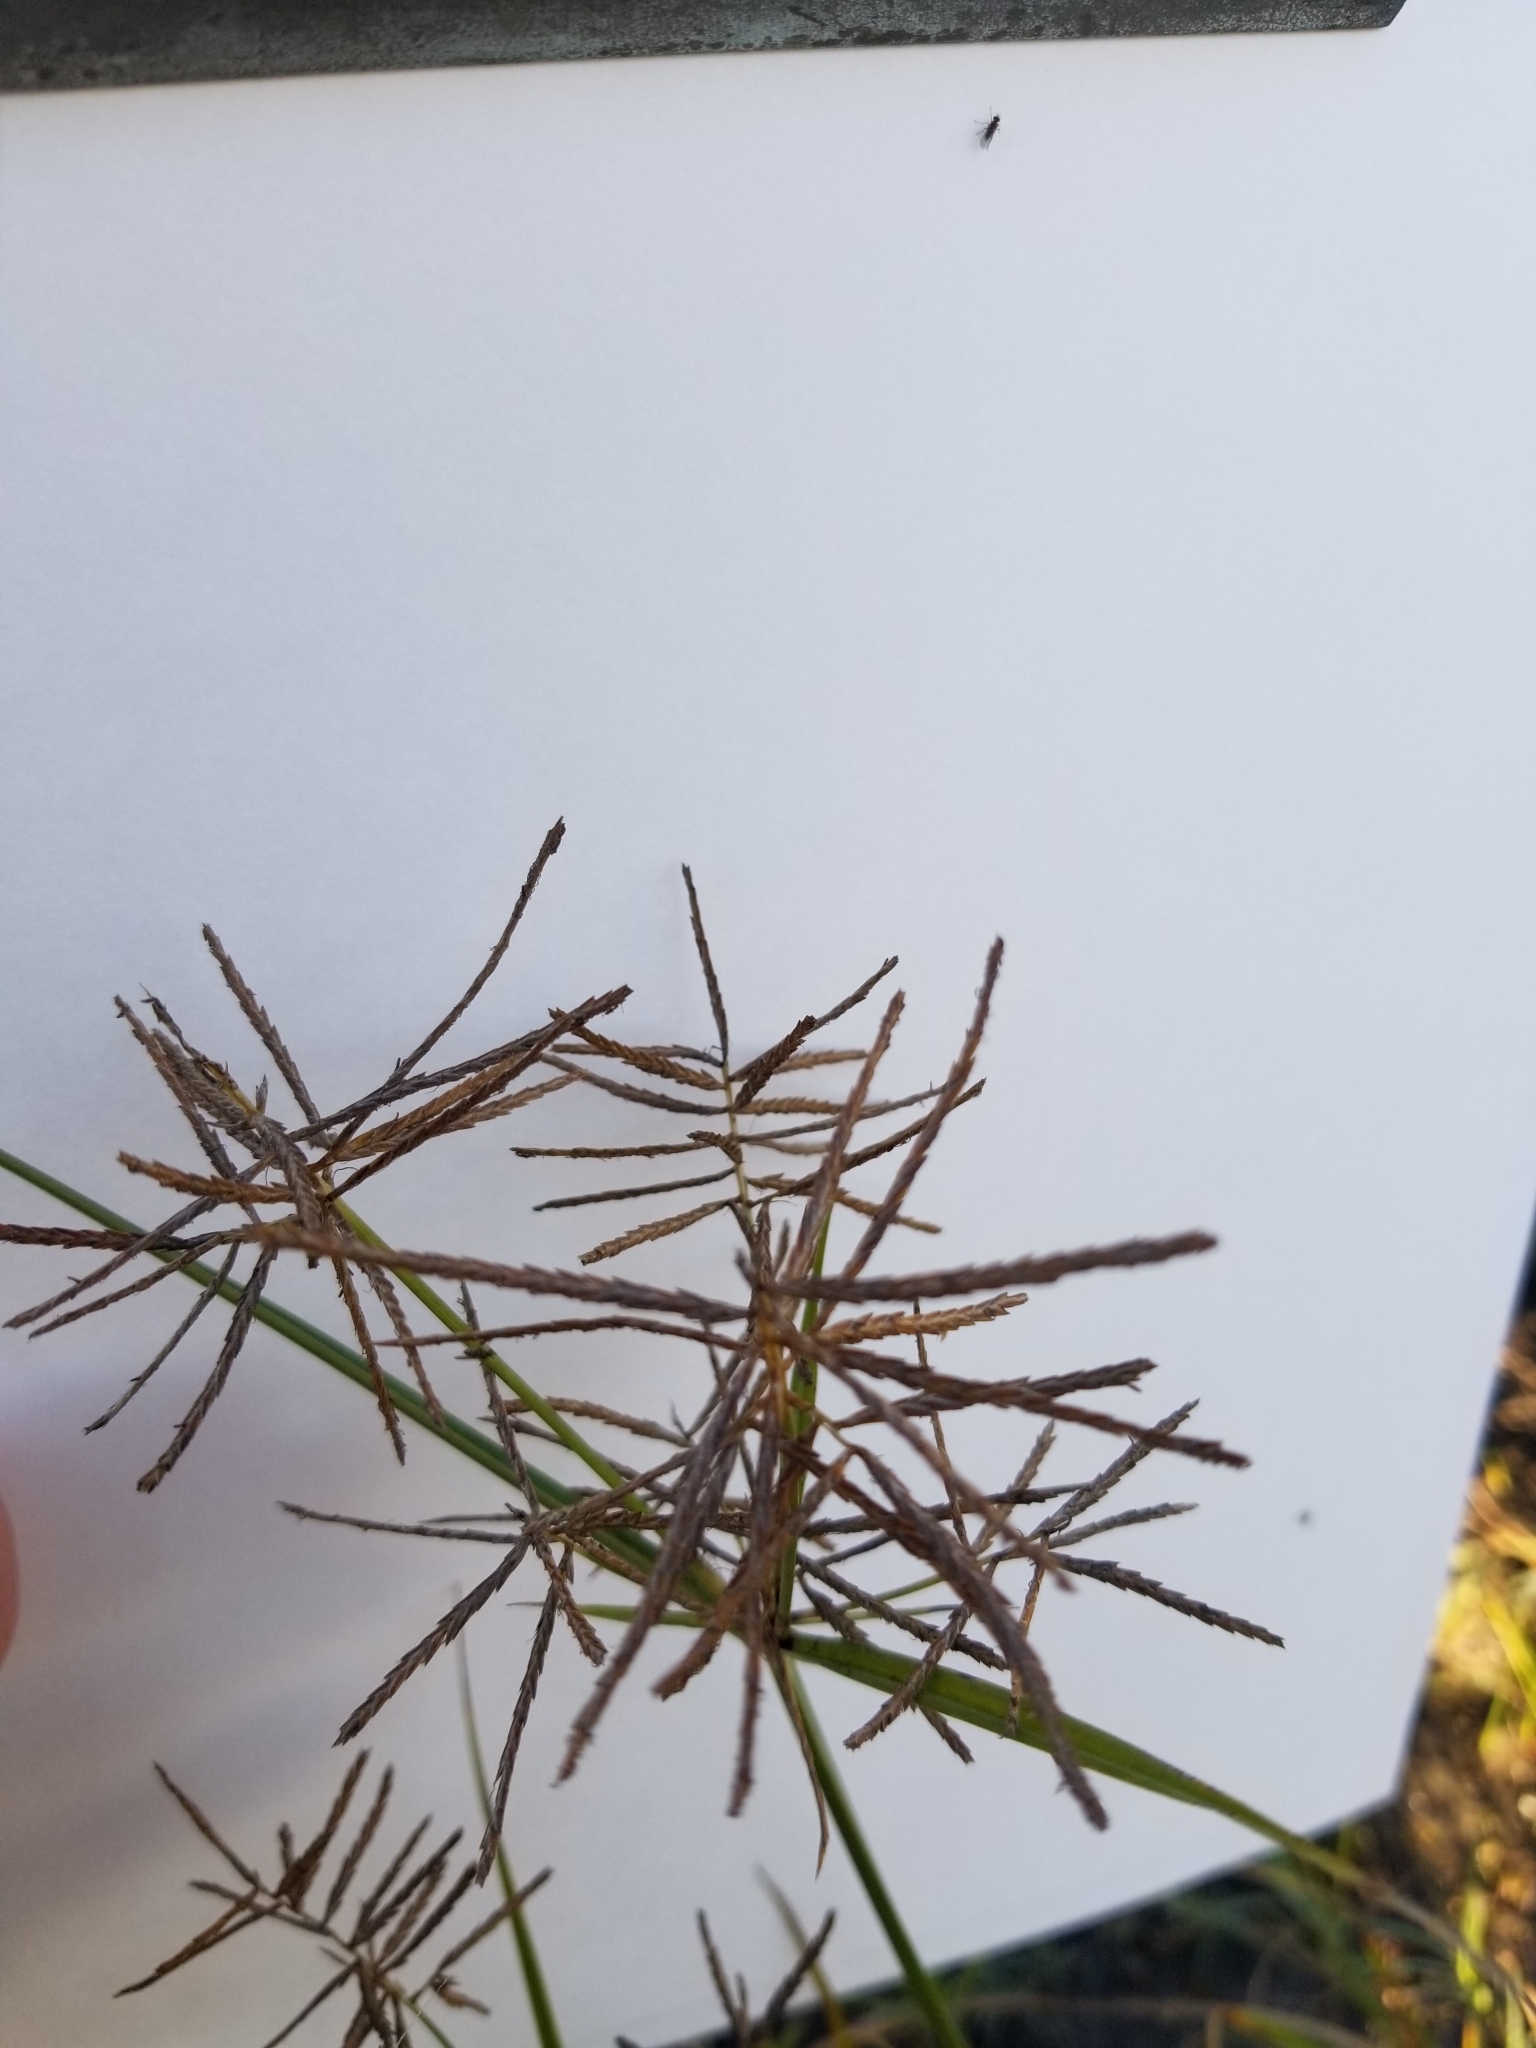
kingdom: Plantae
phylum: Tracheophyta
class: Liliopsida
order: Poales
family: Cyperaceae
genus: Cyperus
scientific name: Cyperus rotundus
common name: Nutgrass
